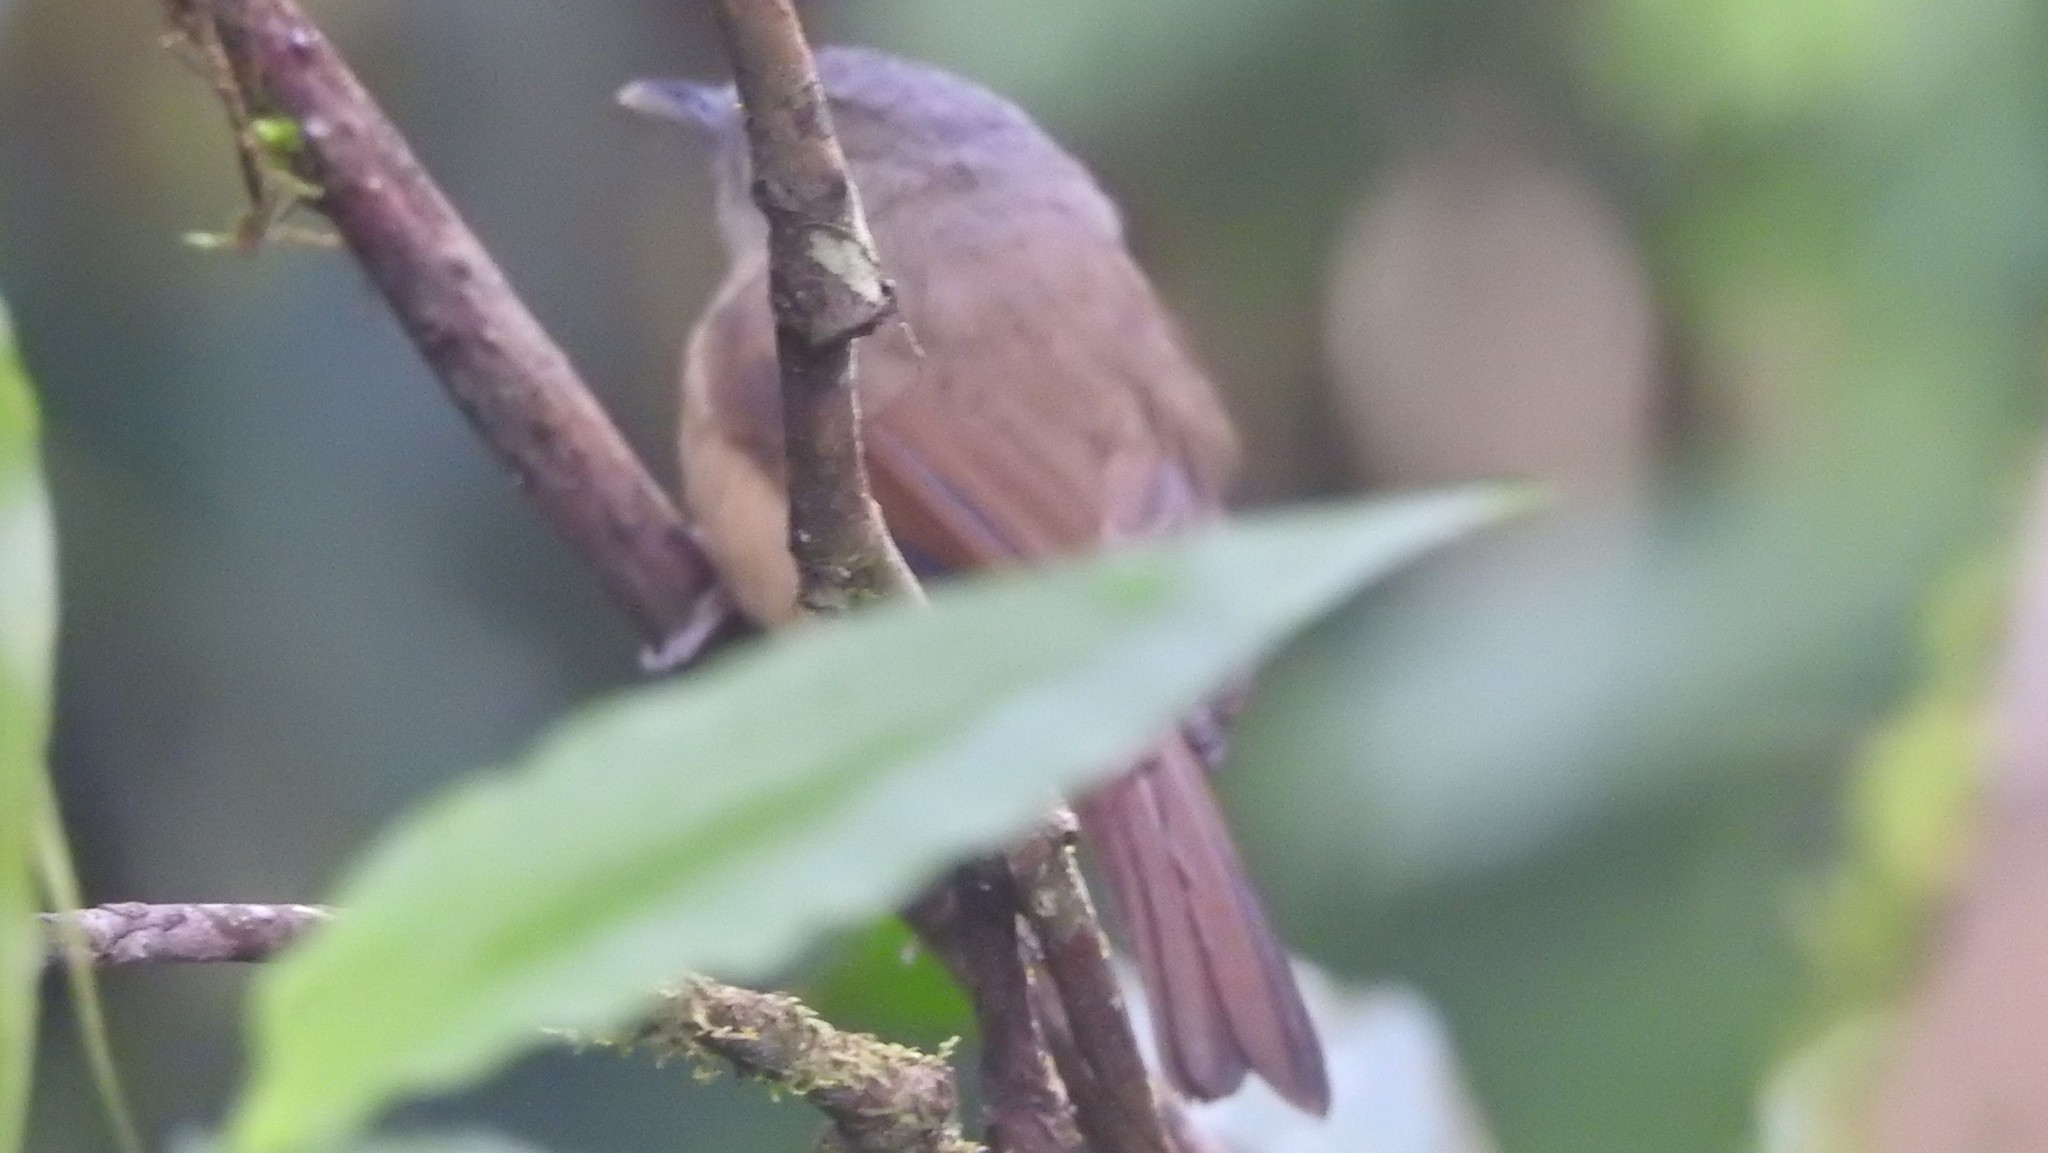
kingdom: Animalia
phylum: Chordata
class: Aves
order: Passeriformes
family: Pellorneidae
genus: Alcippe
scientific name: Alcippe poioicephala
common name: Brown-cheeked fulvetta
